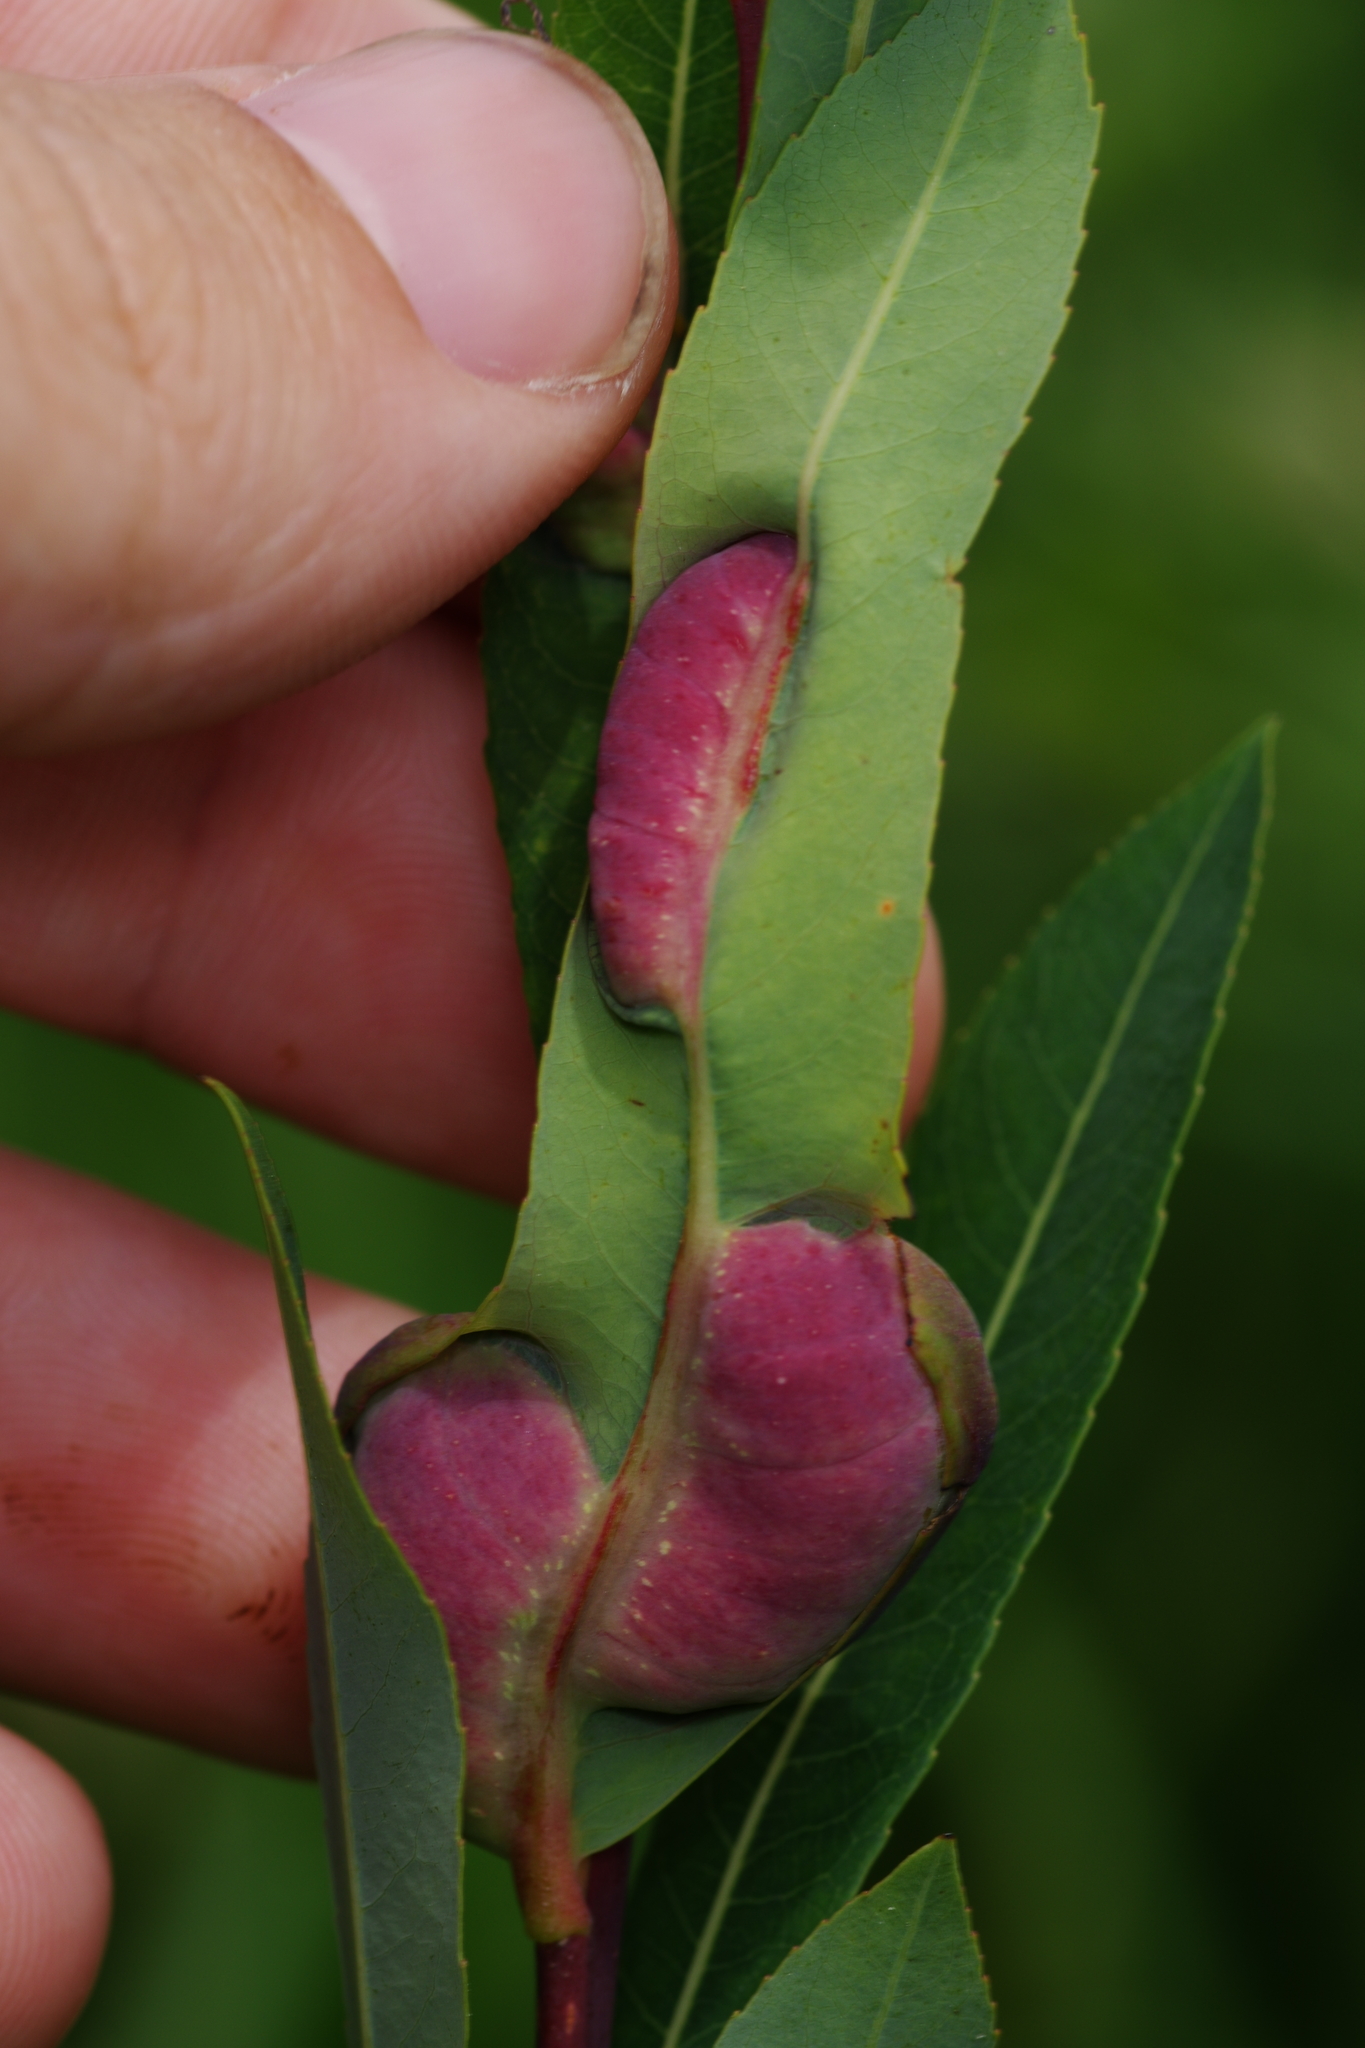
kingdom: Animalia
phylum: Arthropoda
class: Insecta
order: Hymenoptera
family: Tenthredinidae
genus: Pontania
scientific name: Pontania proxima
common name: Common sawfly
